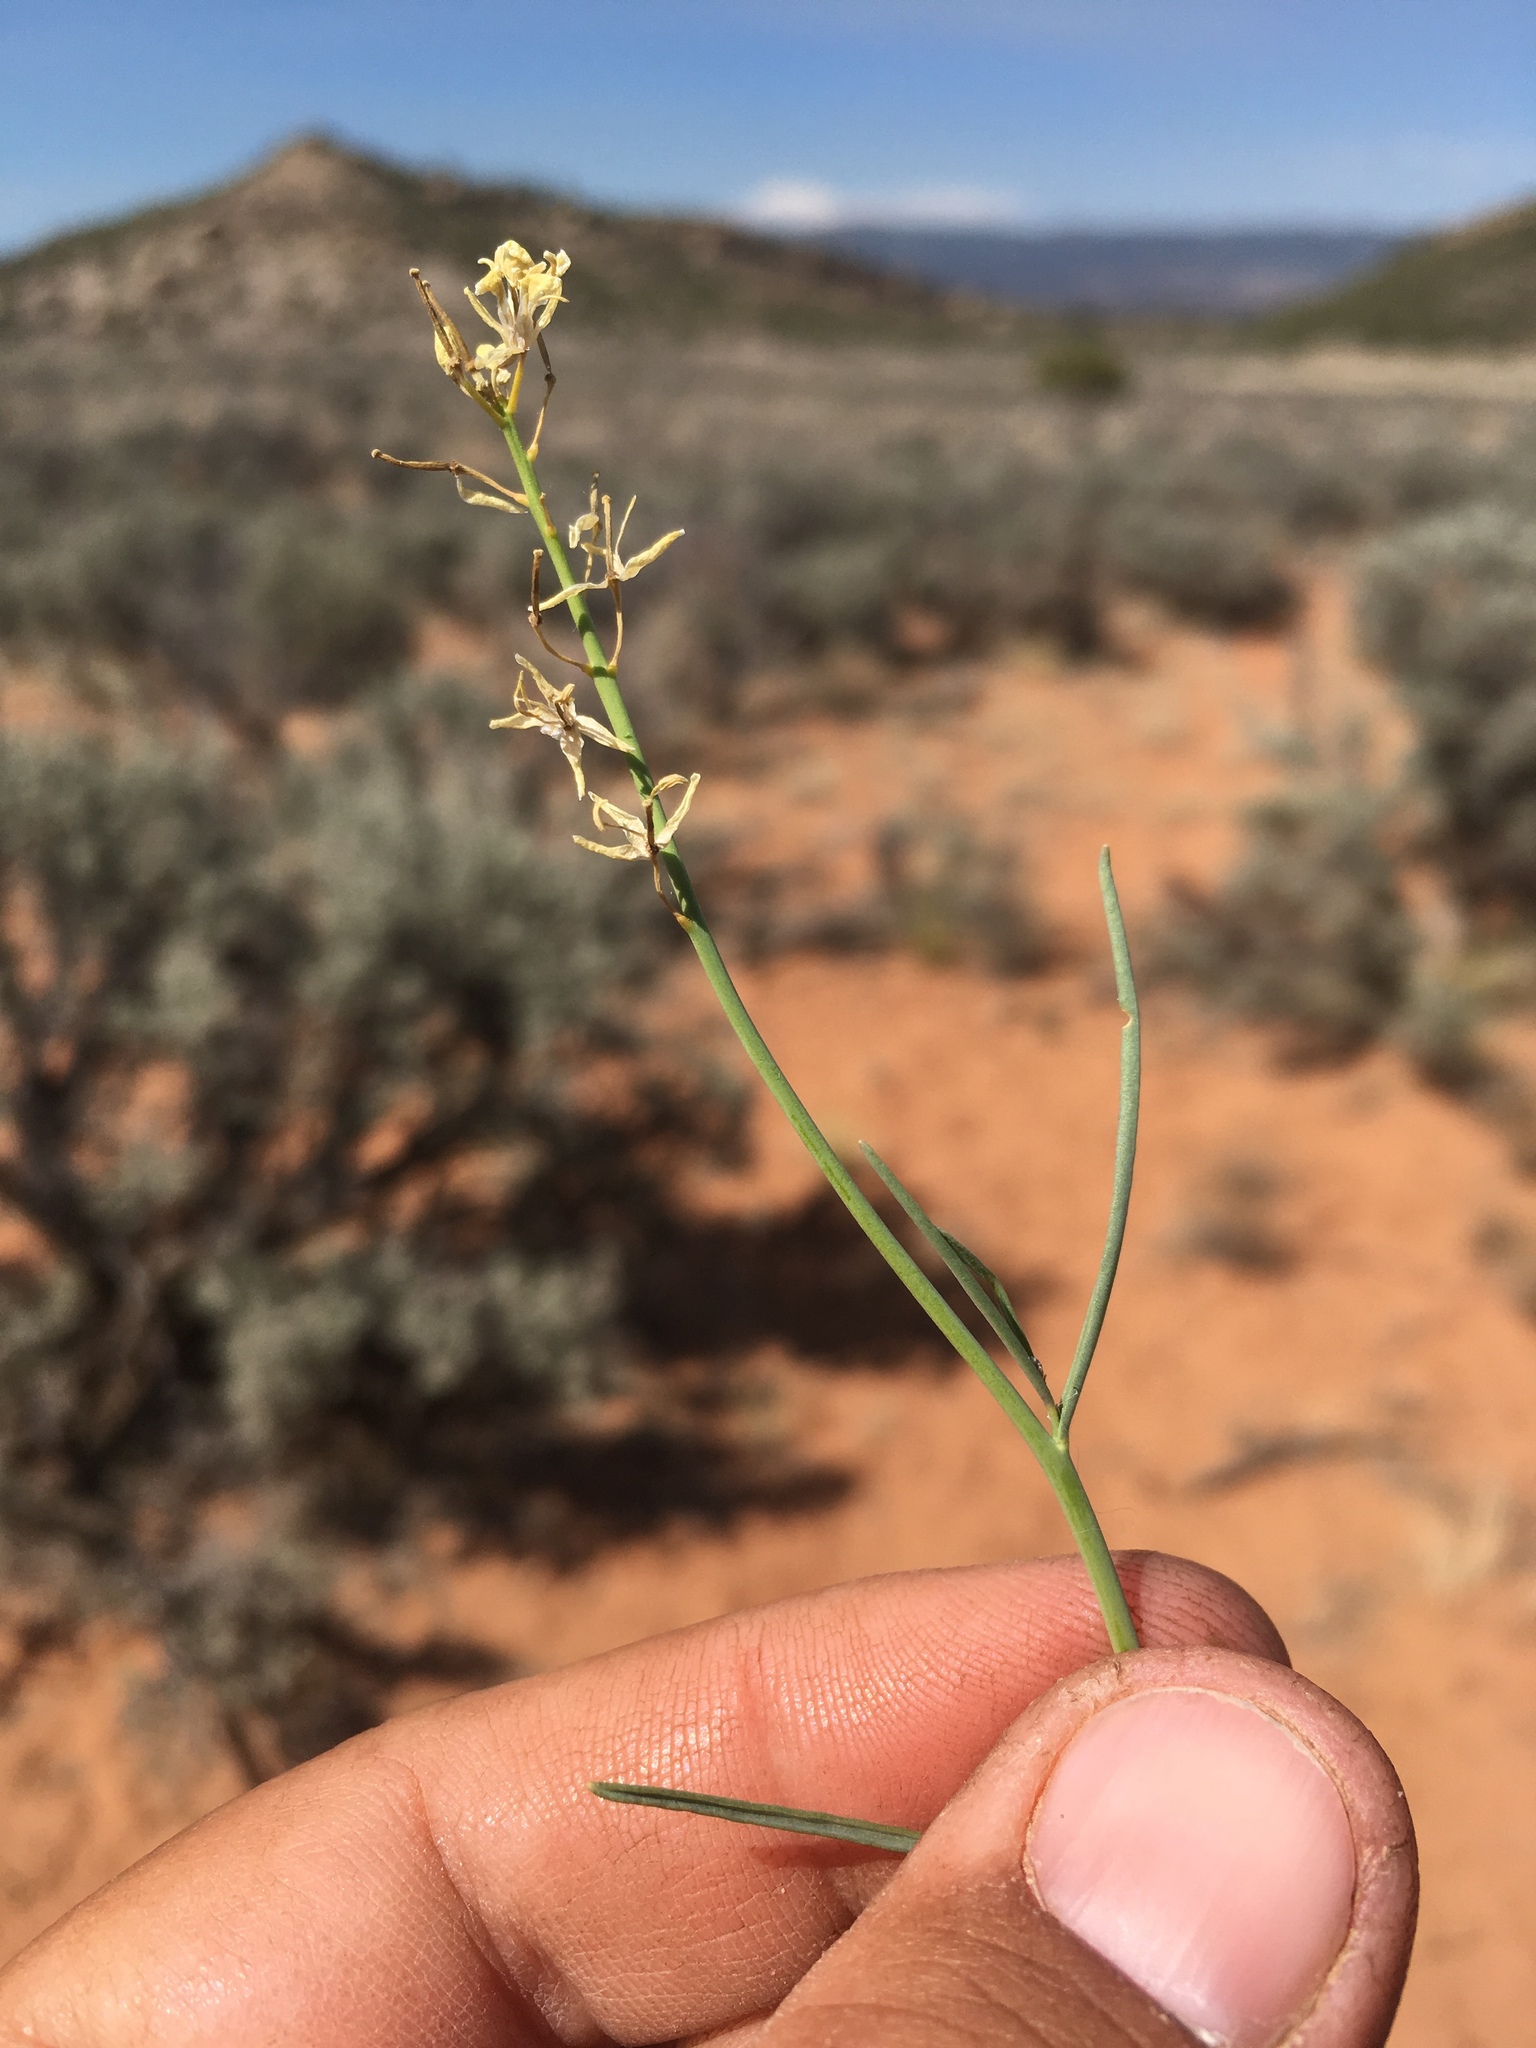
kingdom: Plantae
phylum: Tracheophyta
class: Magnoliopsida
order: Brassicales
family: Brassicaceae
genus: Sisymbrium
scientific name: Sisymbrium linifolium
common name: Salmon river plains mustard
